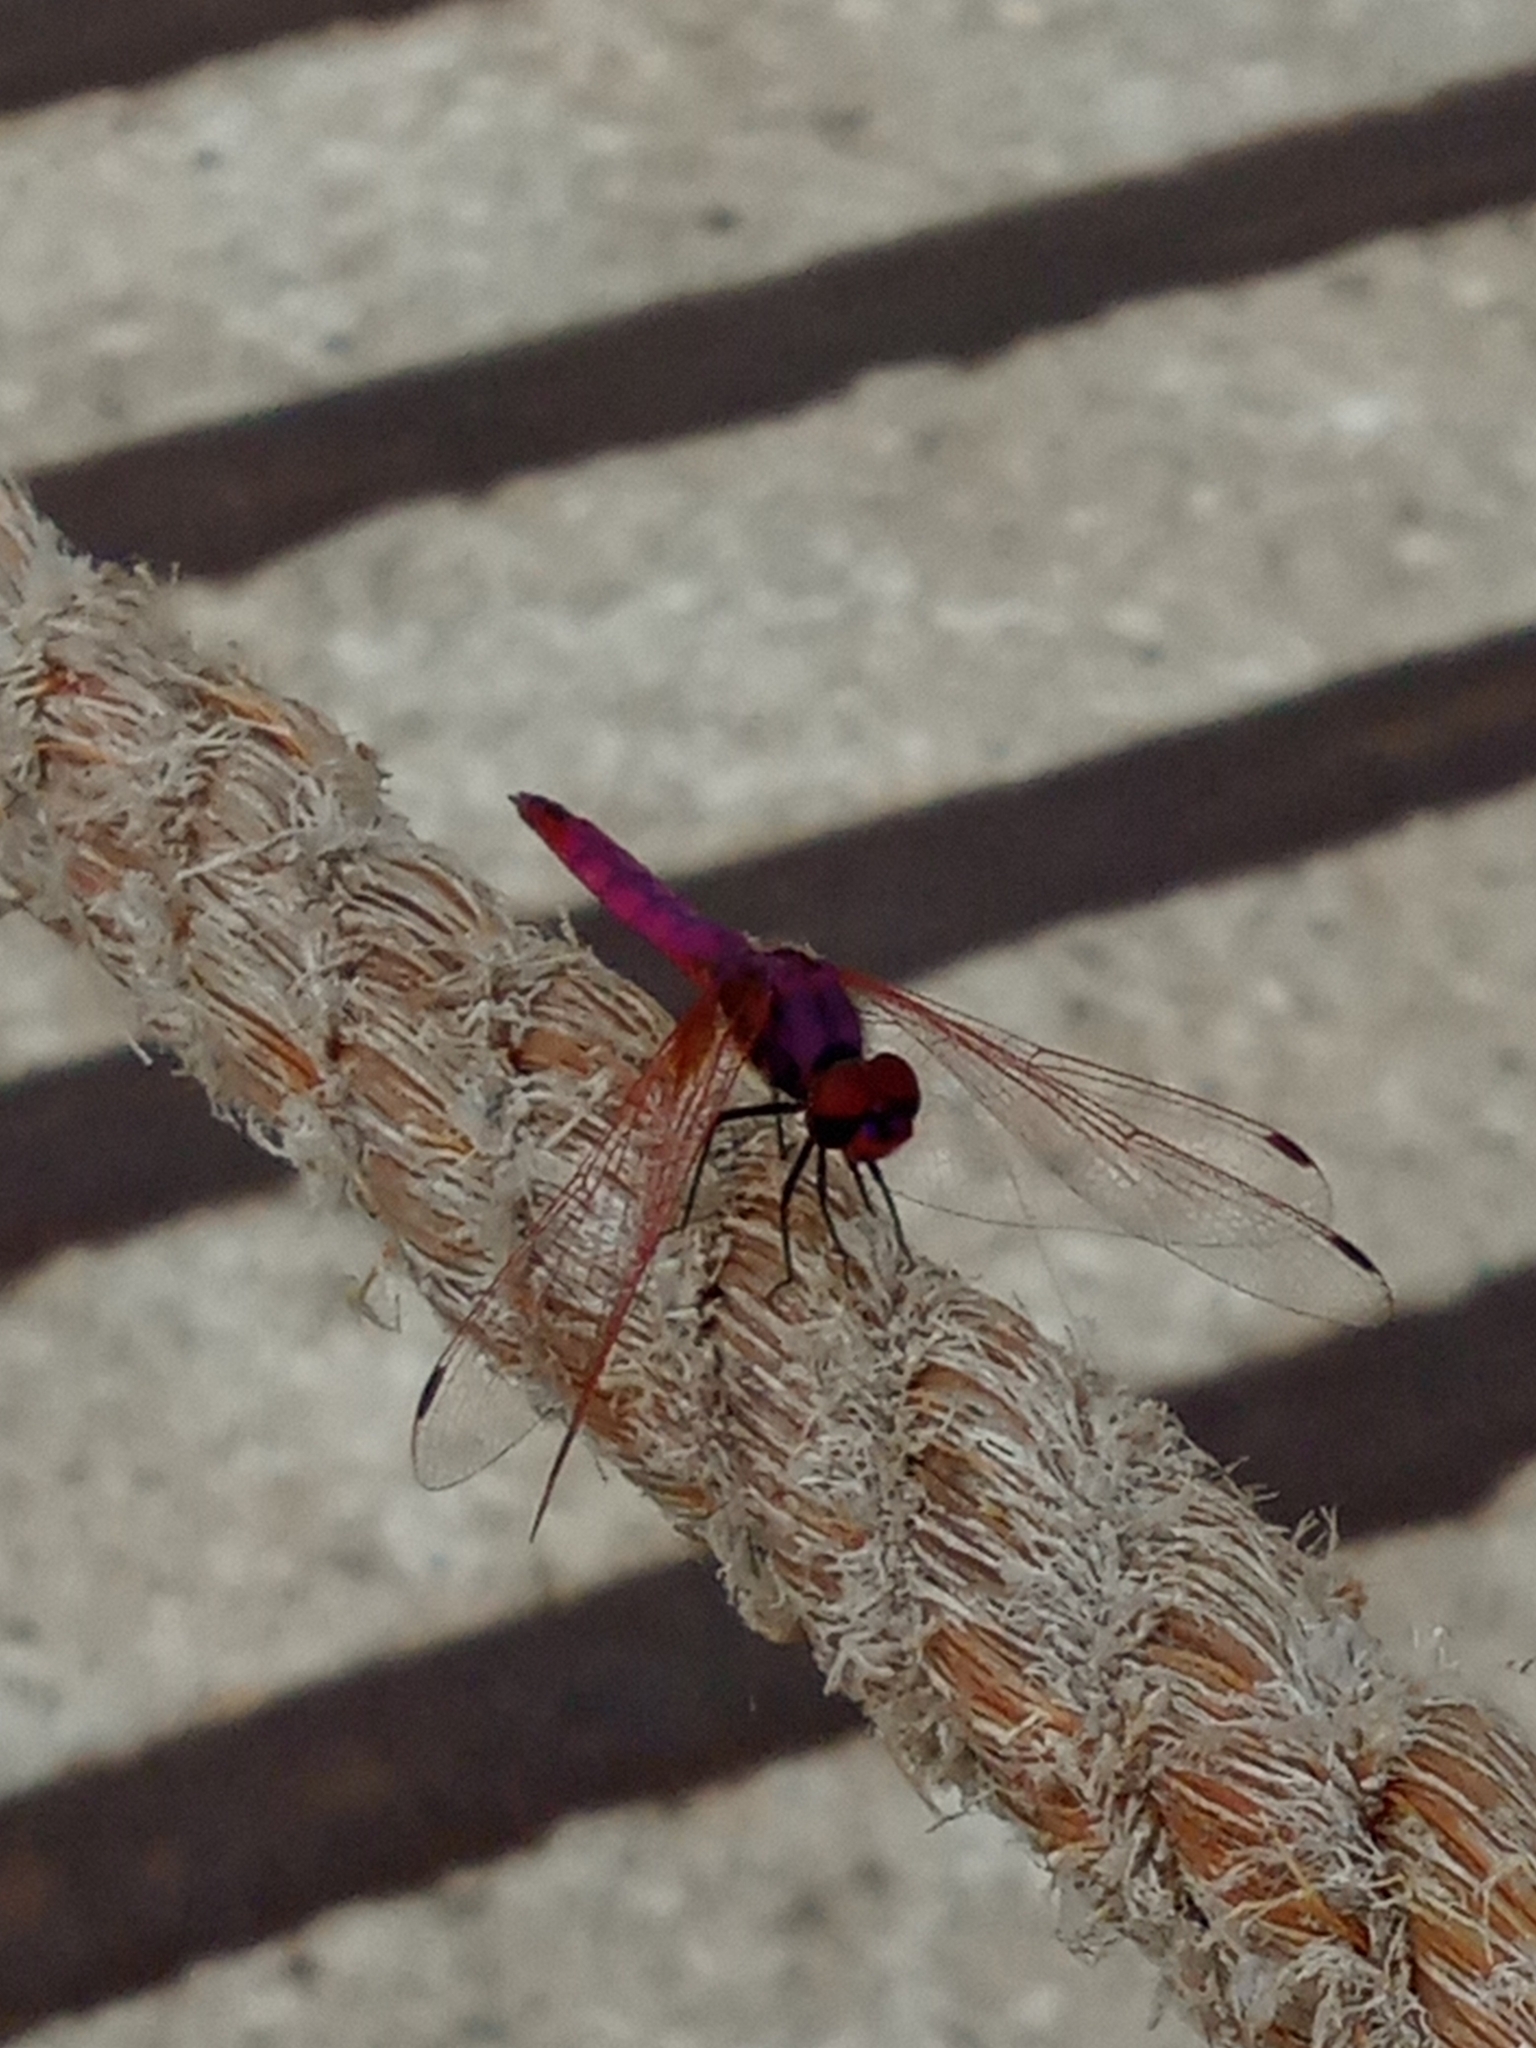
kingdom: Animalia
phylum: Arthropoda
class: Insecta
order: Odonata
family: Libellulidae
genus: Trithemis
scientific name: Trithemis annulata
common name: Violet dropwing
